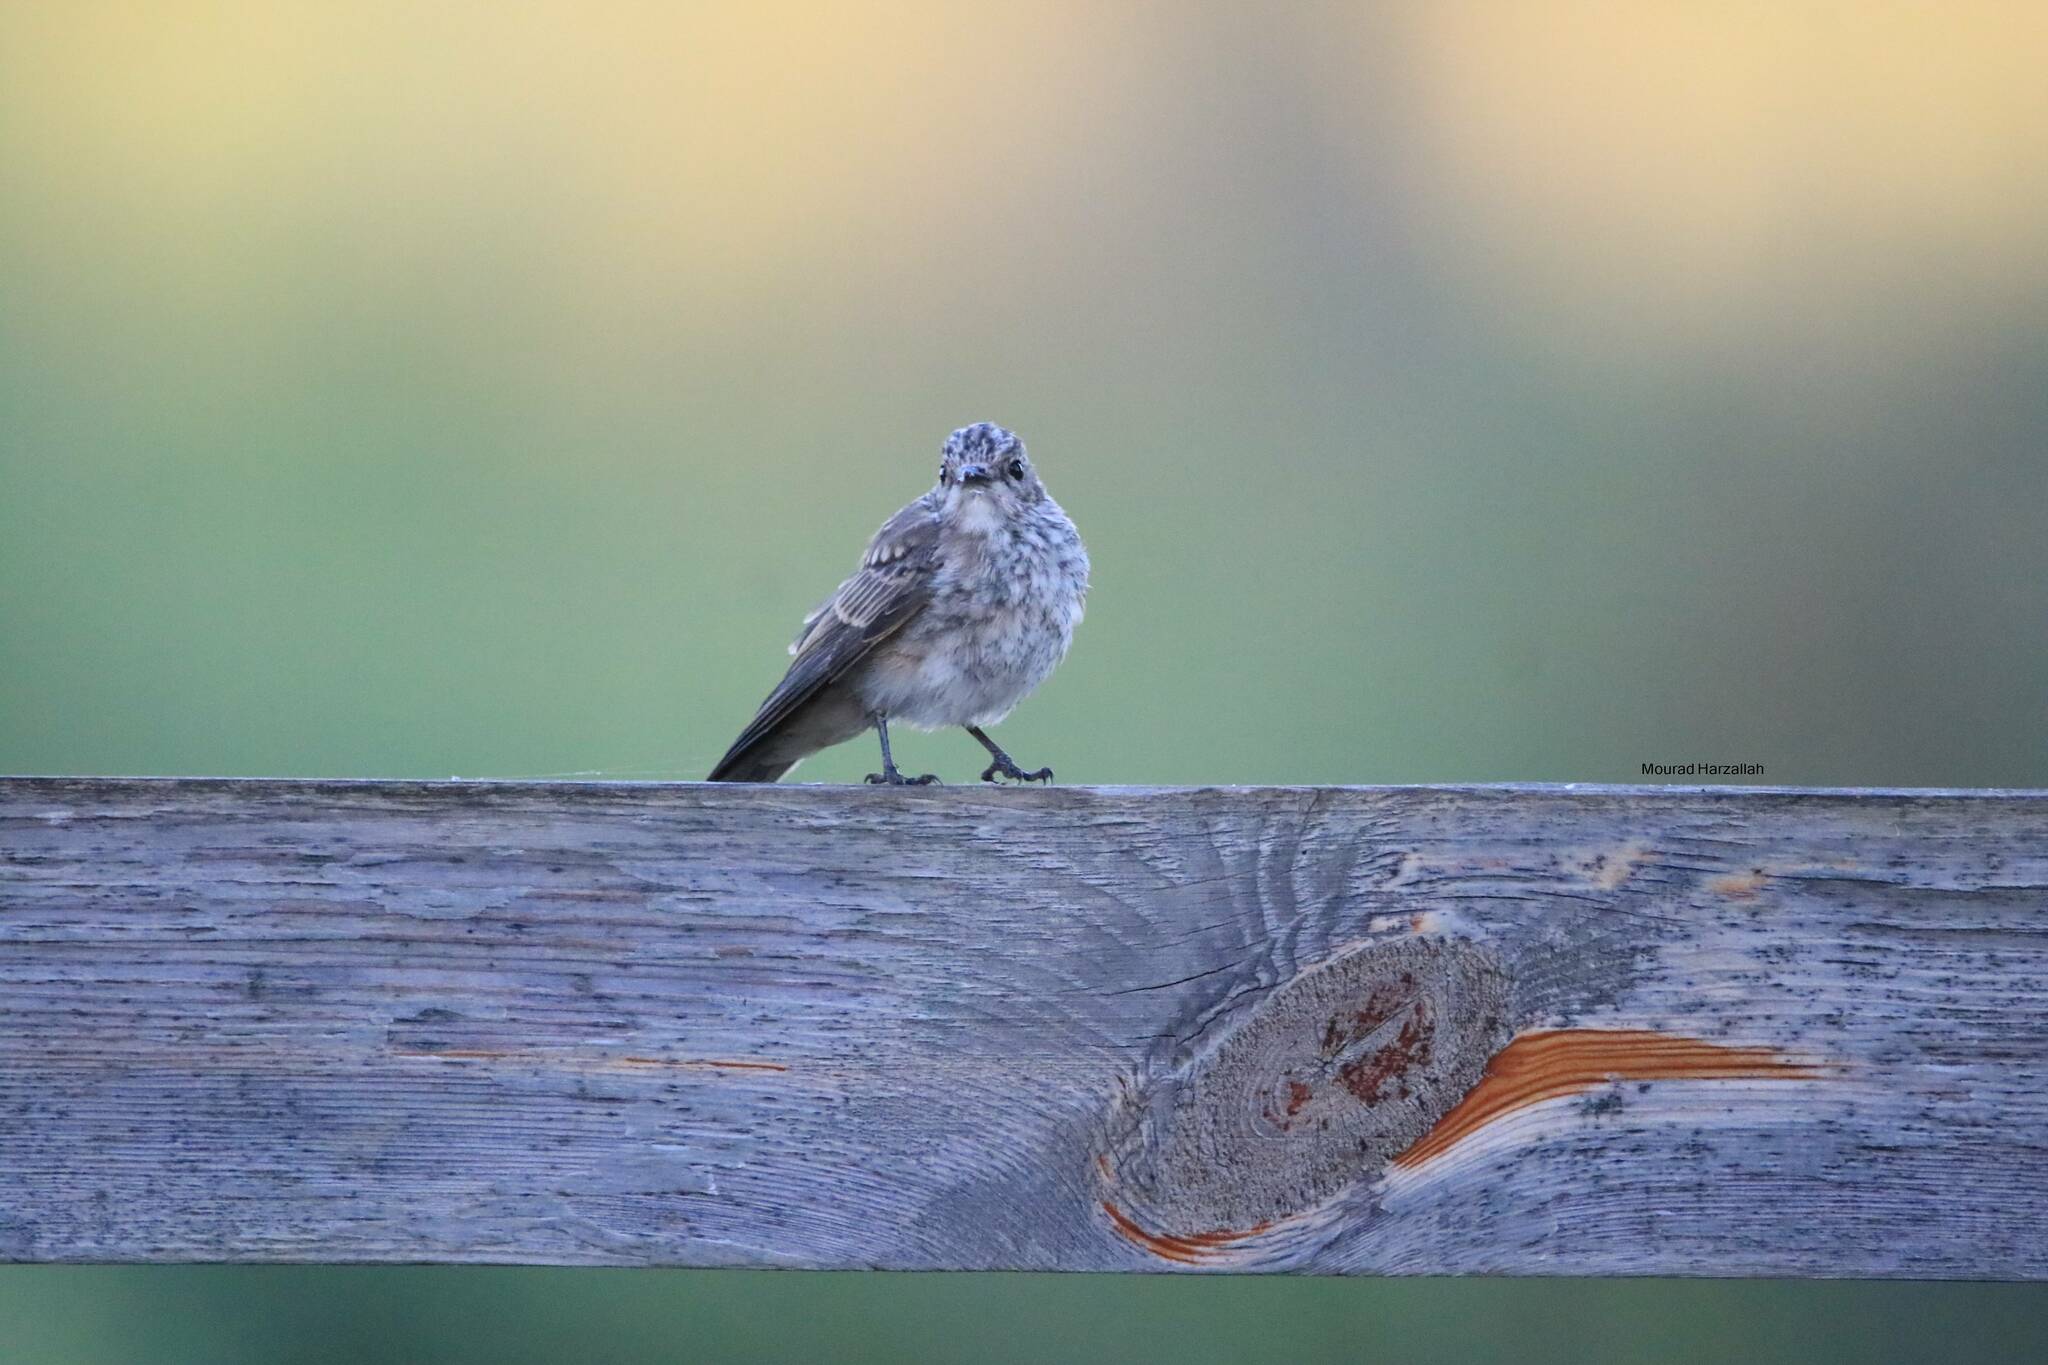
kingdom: Animalia
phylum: Chordata
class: Aves
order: Passeriformes
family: Muscicapidae
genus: Muscicapa
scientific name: Muscicapa striata
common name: Spotted flycatcher
